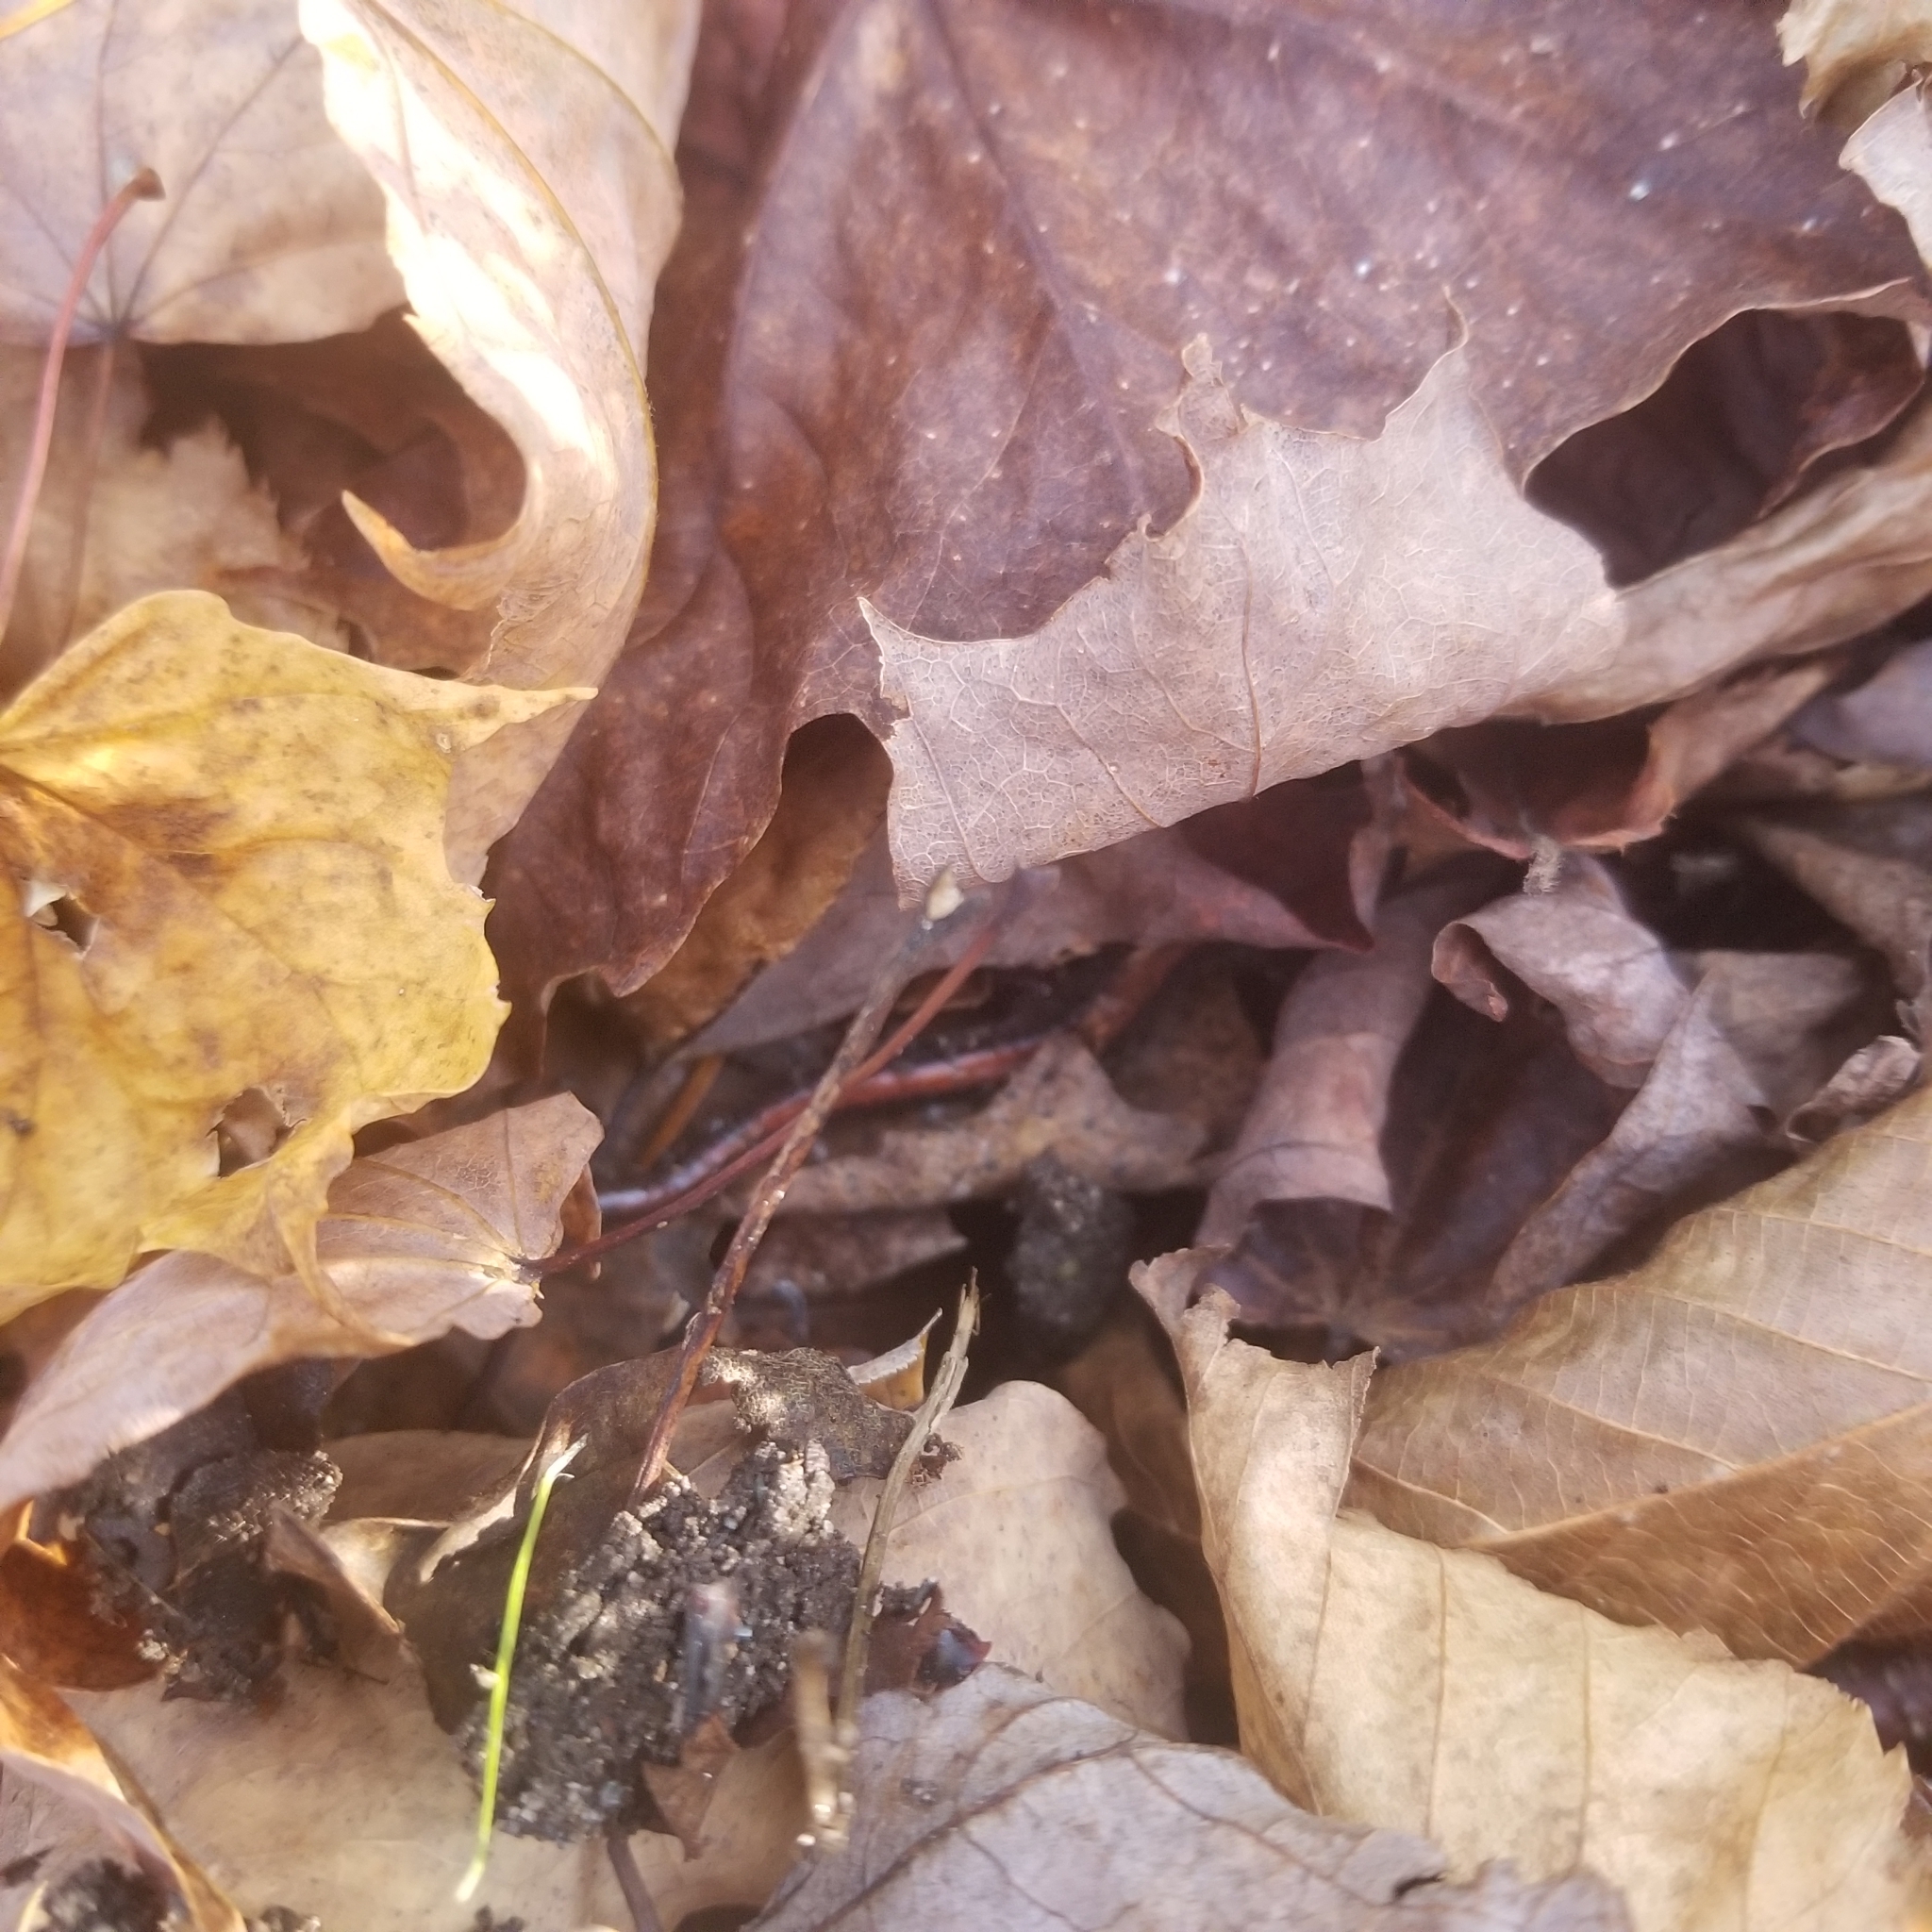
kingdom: Animalia
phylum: Chordata
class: Amphibia
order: Caudata
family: Plethodontidae
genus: Plethodon
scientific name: Plethodon cinereus
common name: Redback salamander
